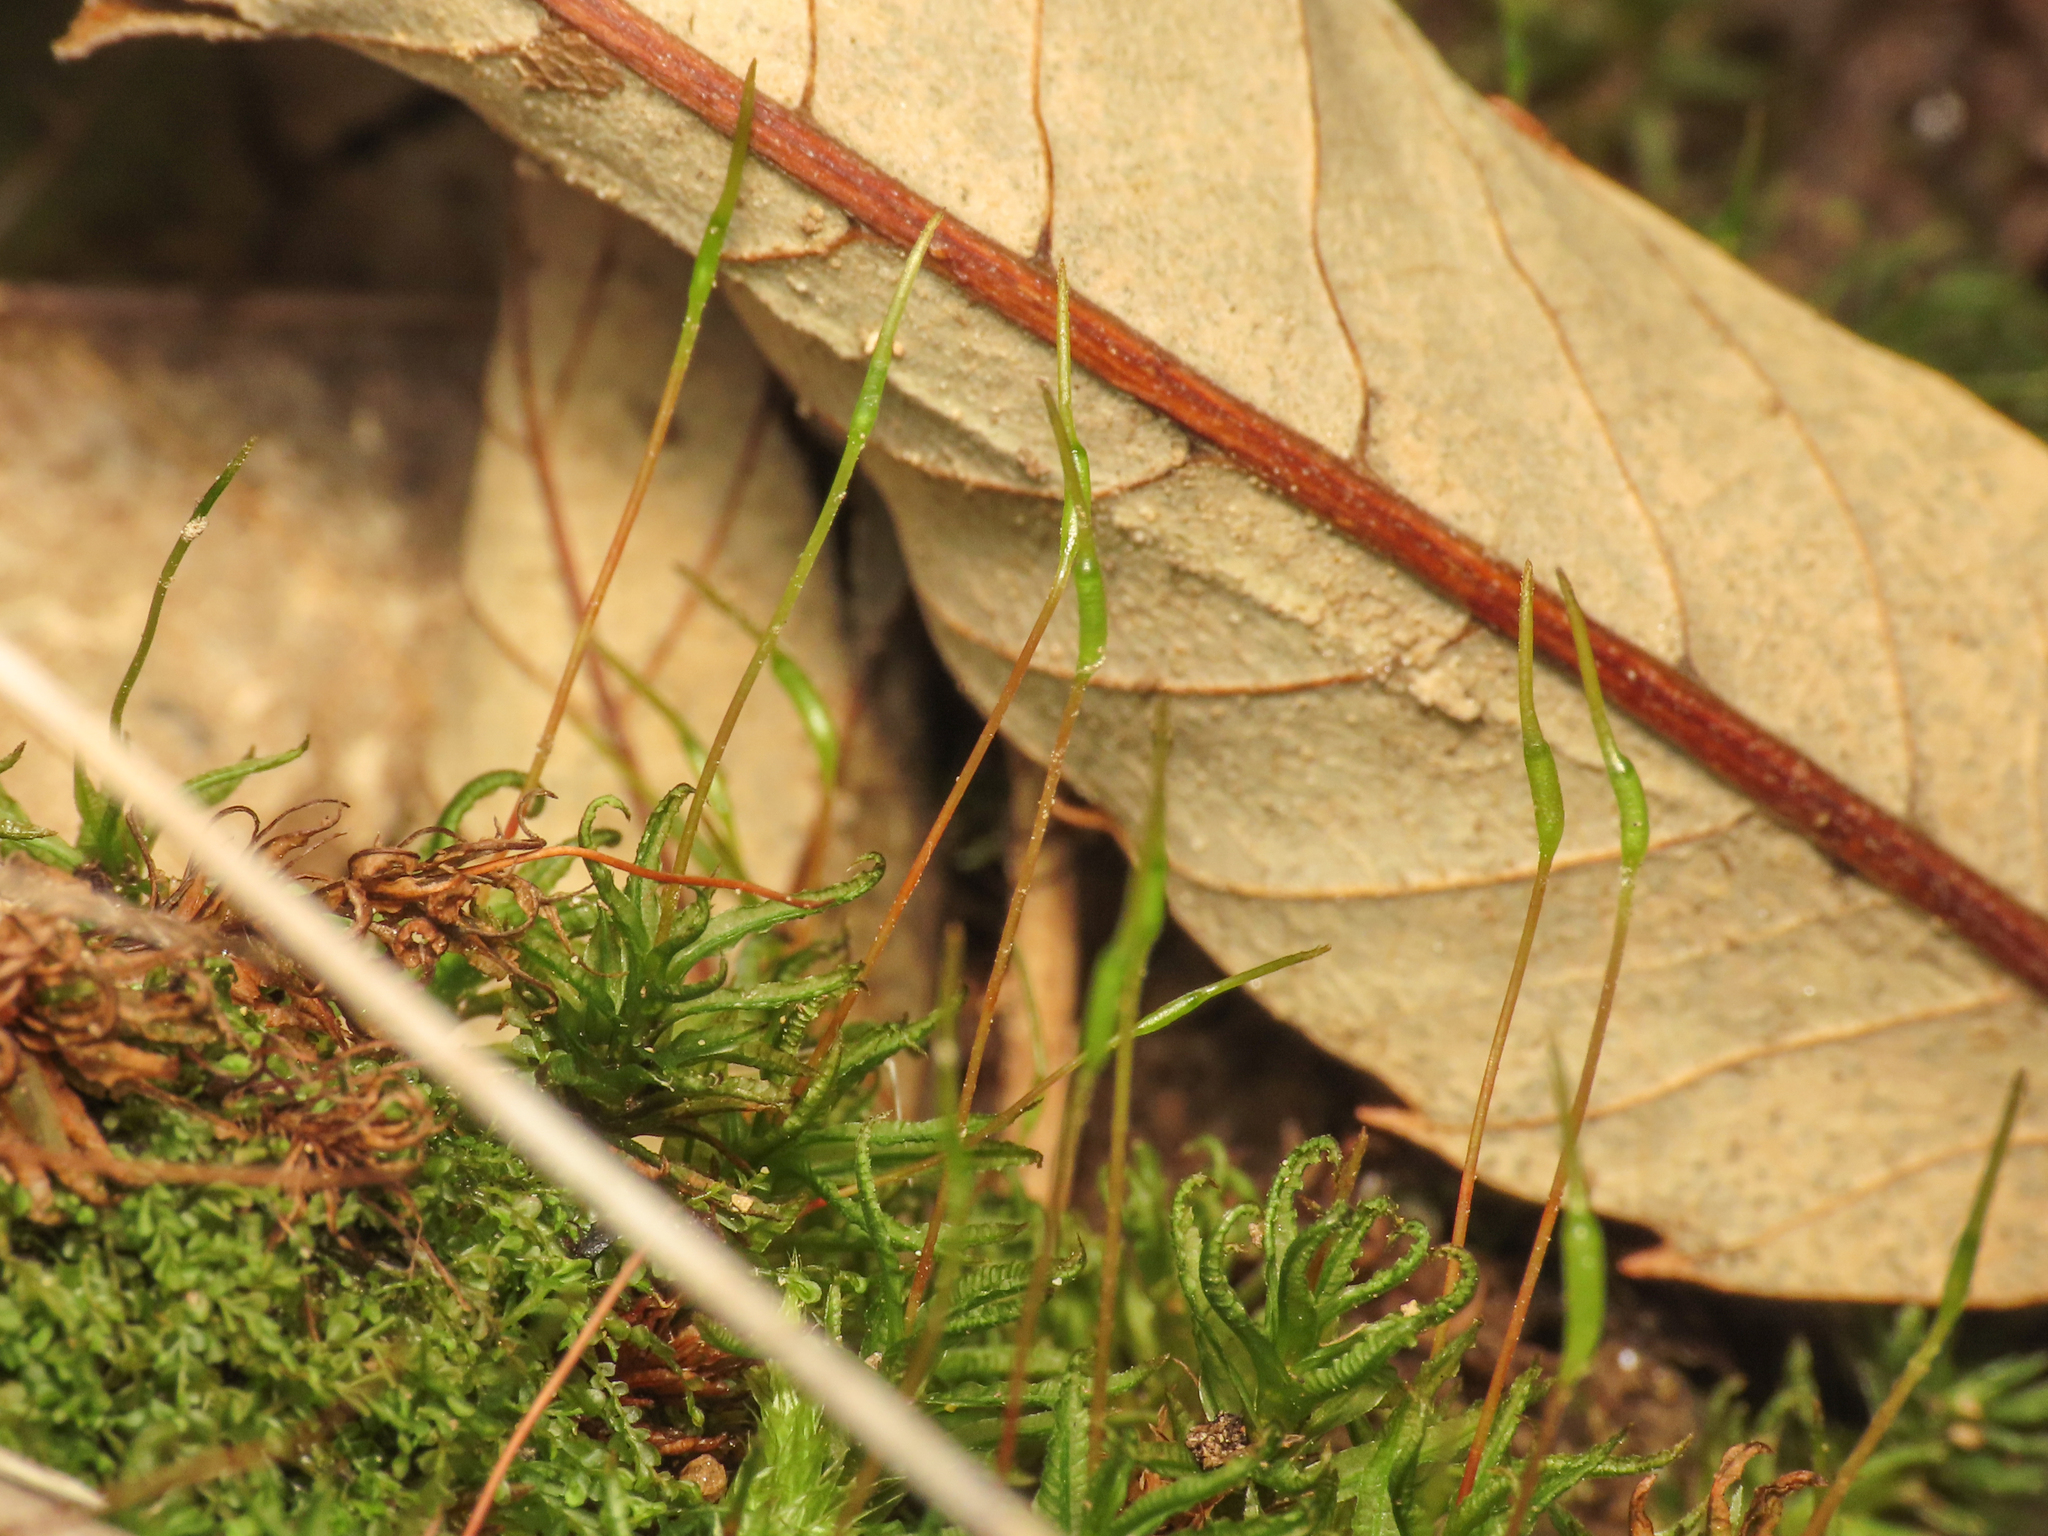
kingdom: Plantae
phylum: Bryophyta
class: Polytrichopsida
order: Polytrichales
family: Polytrichaceae
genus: Atrichum
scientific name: Atrichum undulatum
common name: Common smoothcap
